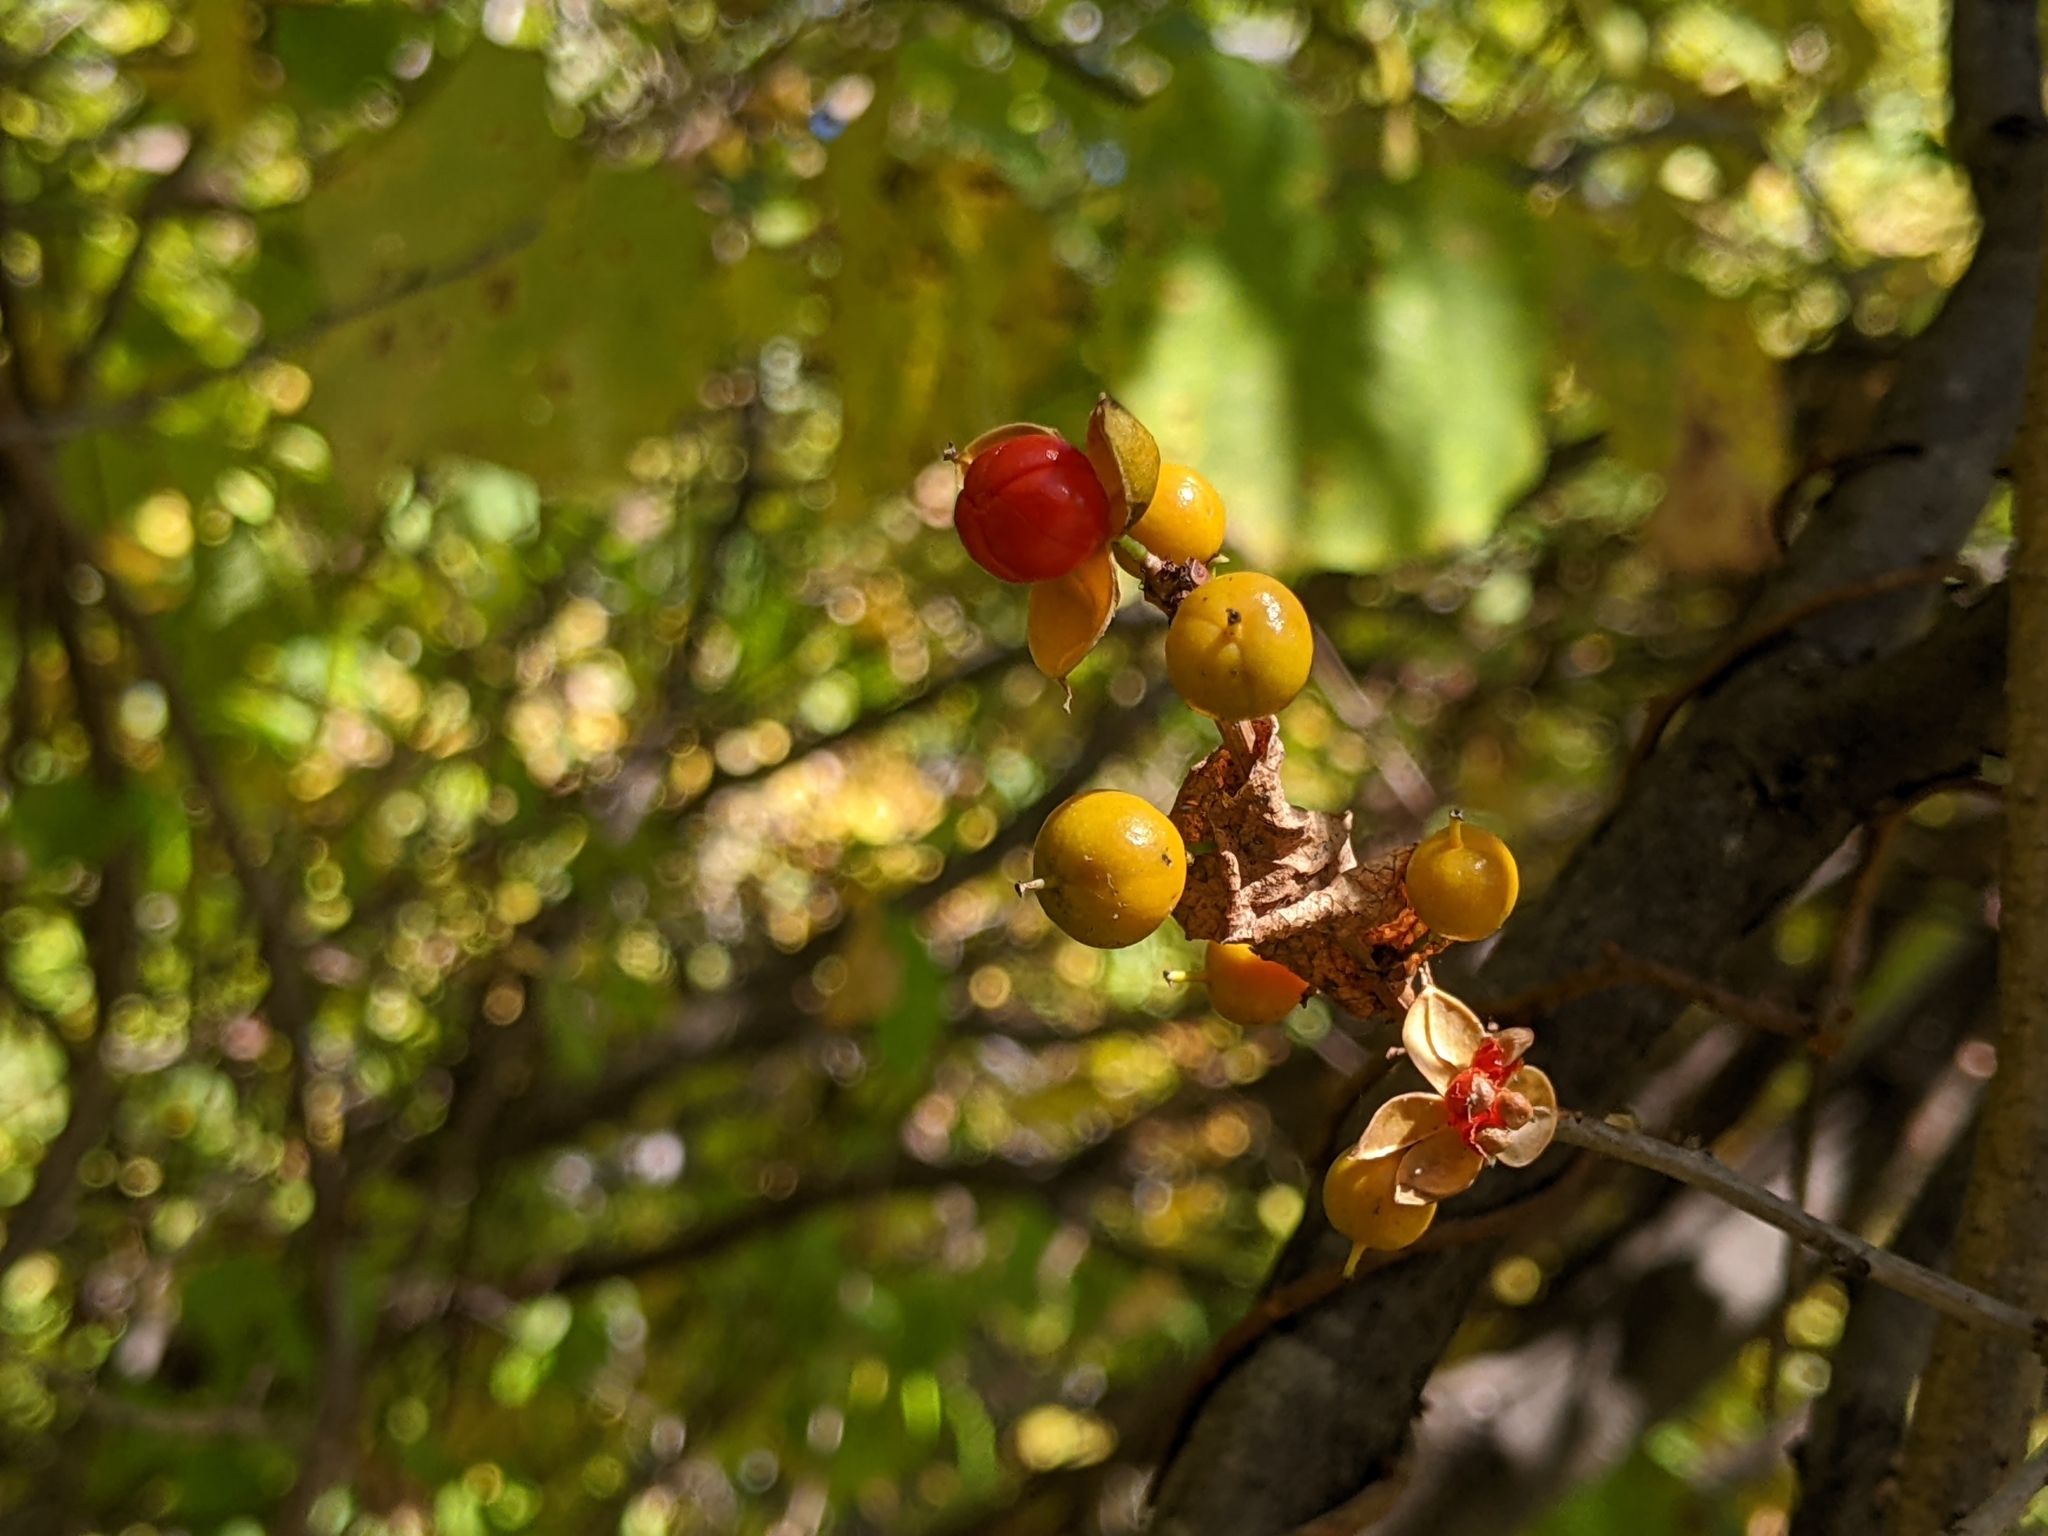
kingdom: Plantae
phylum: Tracheophyta
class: Magnoliopsida
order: Celastrales
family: Celastraceae
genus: Celastrus
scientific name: Celastrus orbiculatus
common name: Oriental bittersweet
